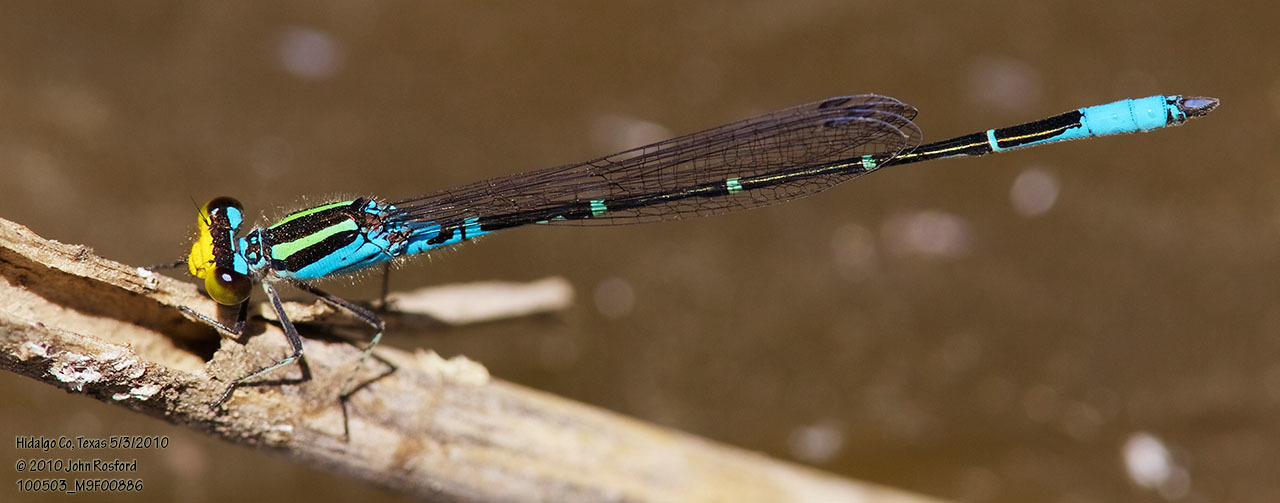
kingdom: Animalia
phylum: Arthropoda
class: Insecta
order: Odonata
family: Coenagrionidae
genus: Neoerythromma
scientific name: Neoerythromma cultellatum
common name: Caribbean yellowface
